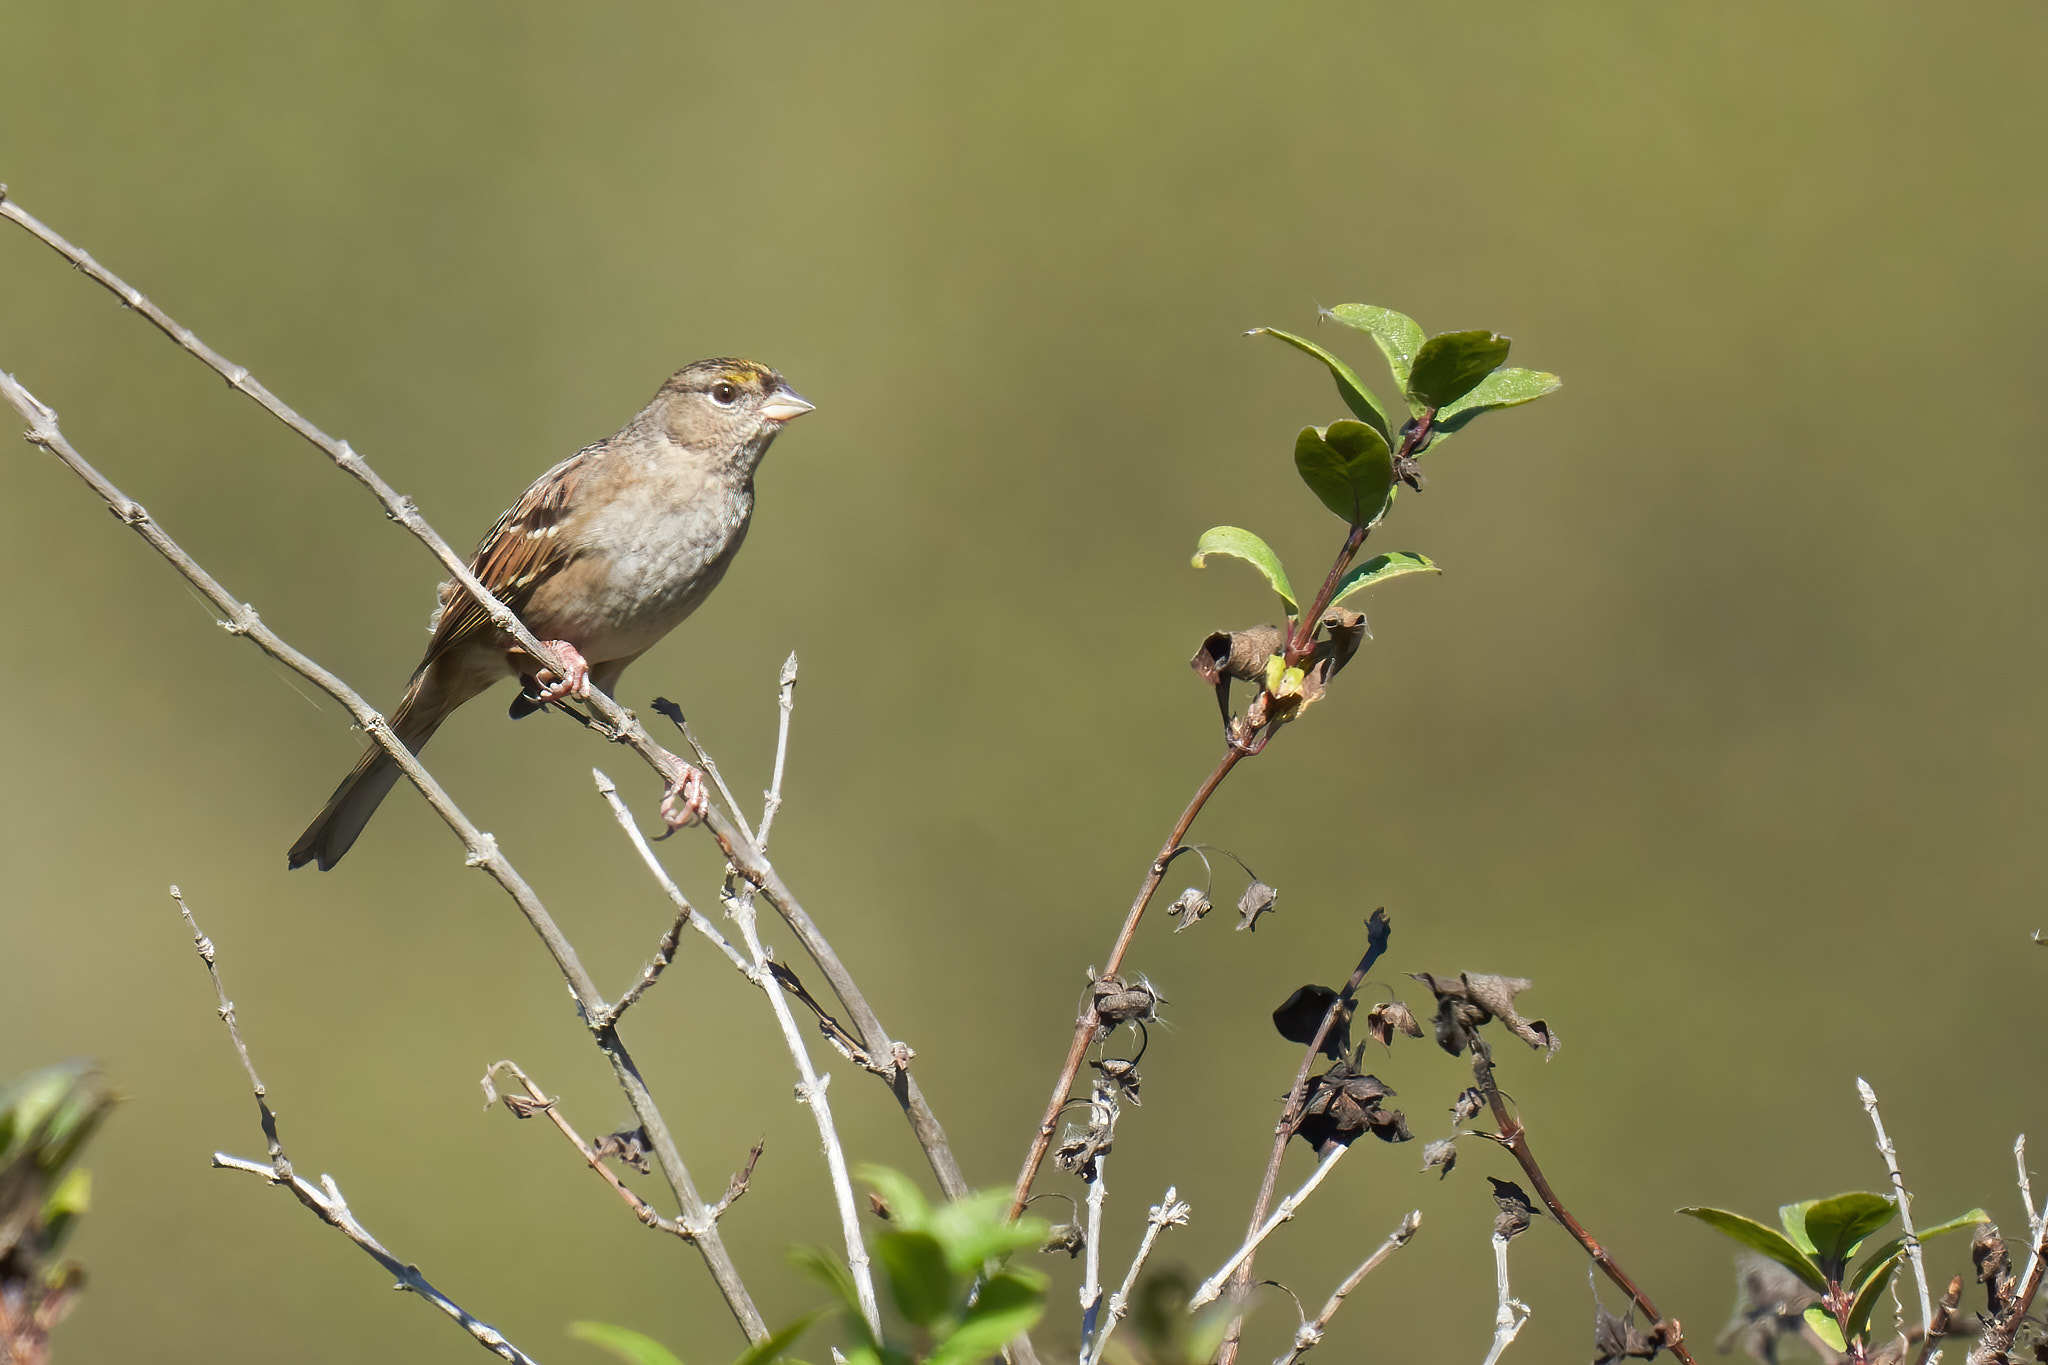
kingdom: Animalia
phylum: Chordata
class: Aves
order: Passeriformes
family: Passerellidae
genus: Zonotrichia
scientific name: Zonotrichia atricapilla
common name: Golden-crowned sparrow
